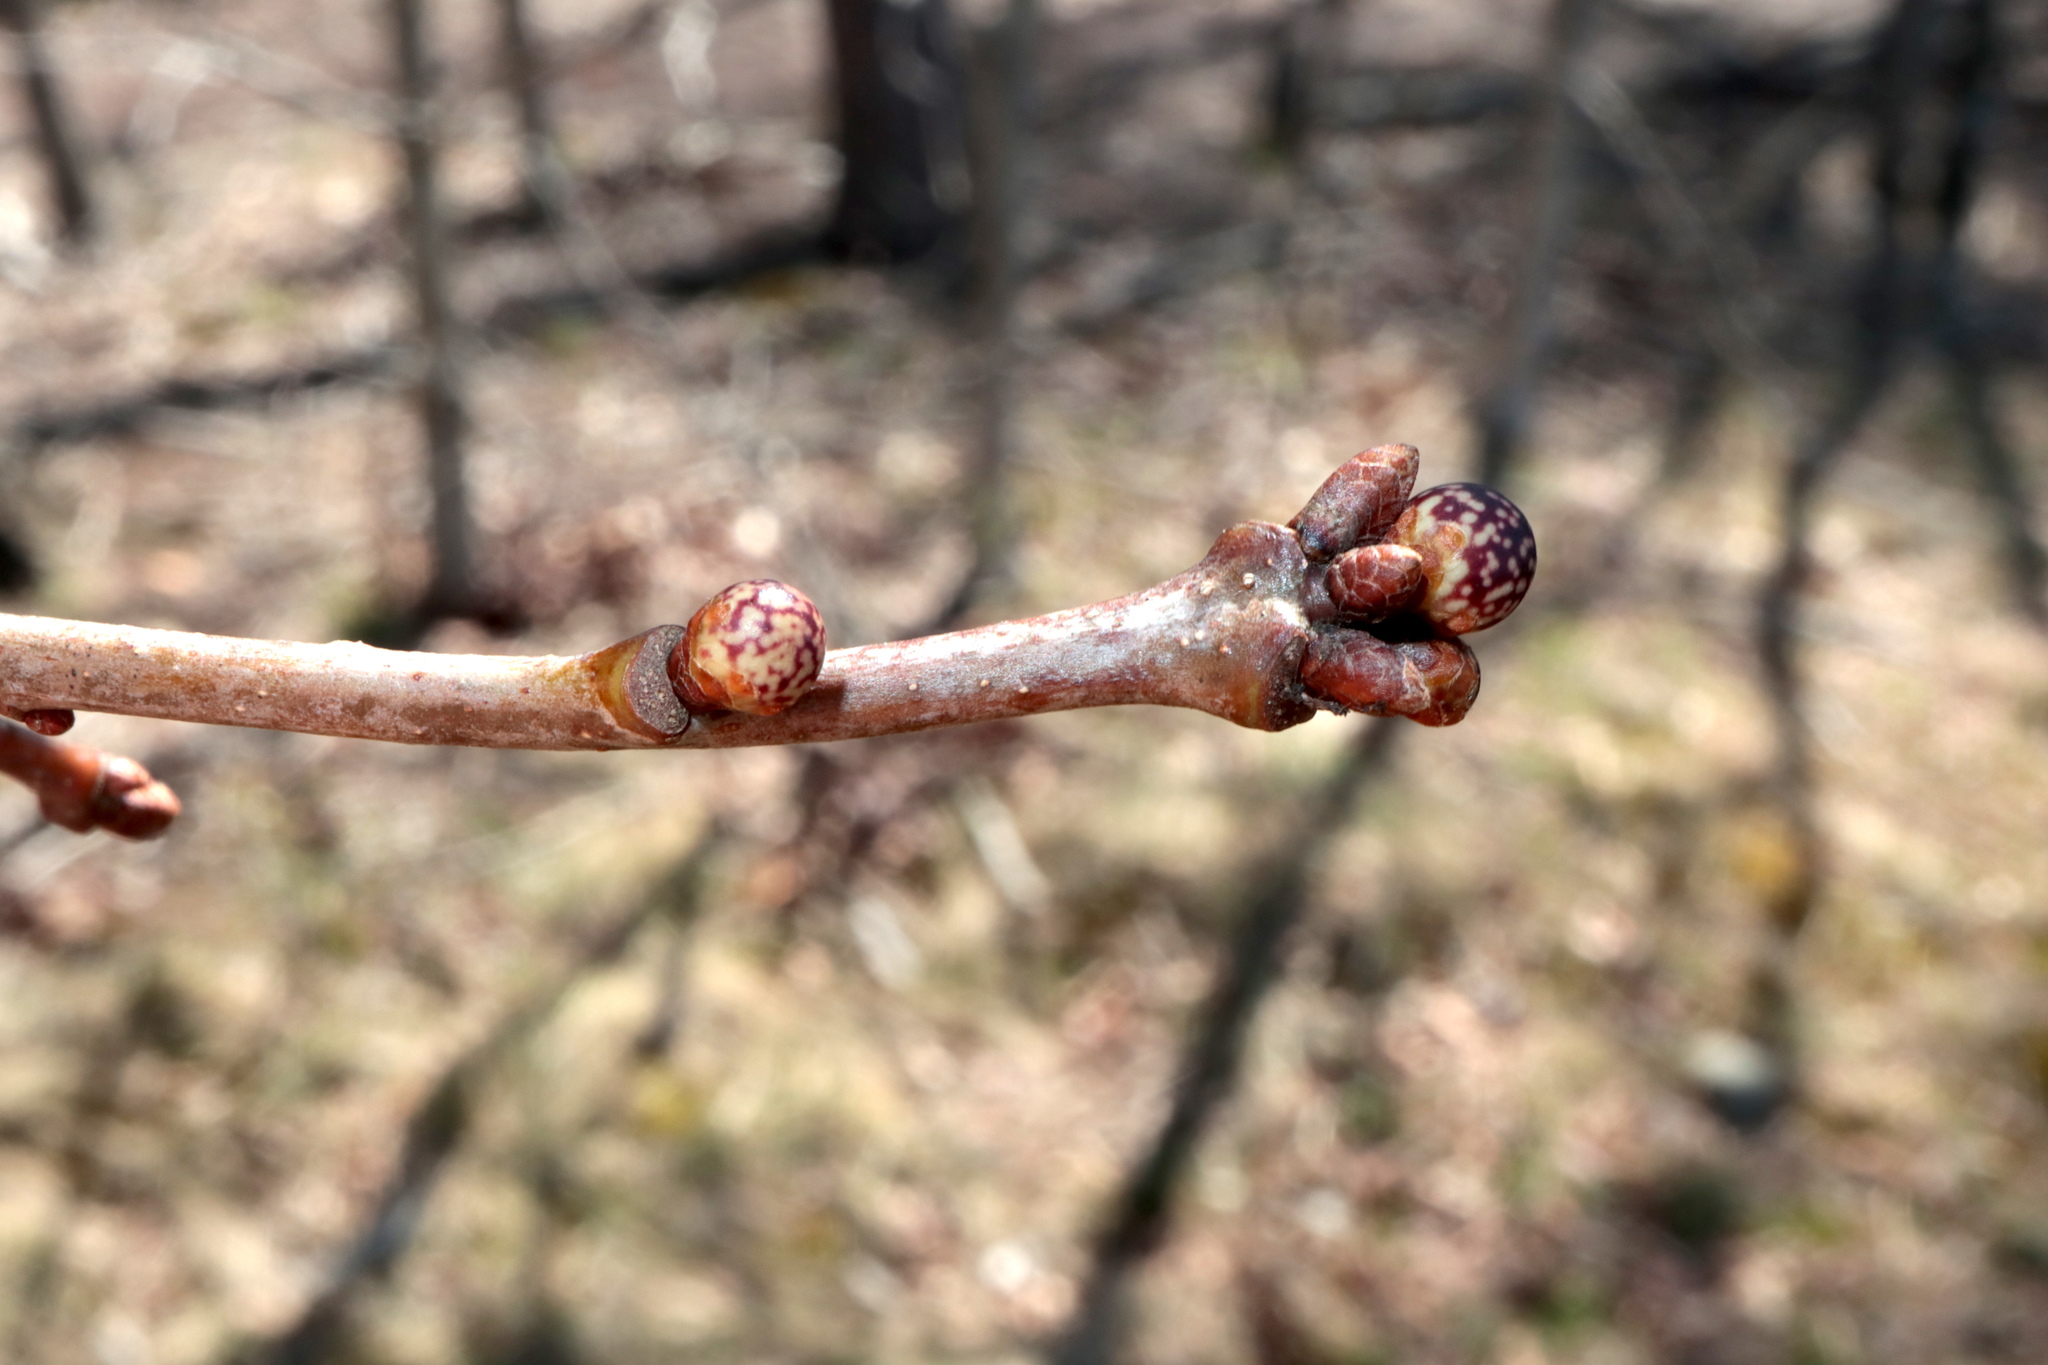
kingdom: Animalia
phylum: Arthropoda
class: Insecta
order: Hymenoptera
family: Cynipidae
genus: Andricus
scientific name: Andricus
